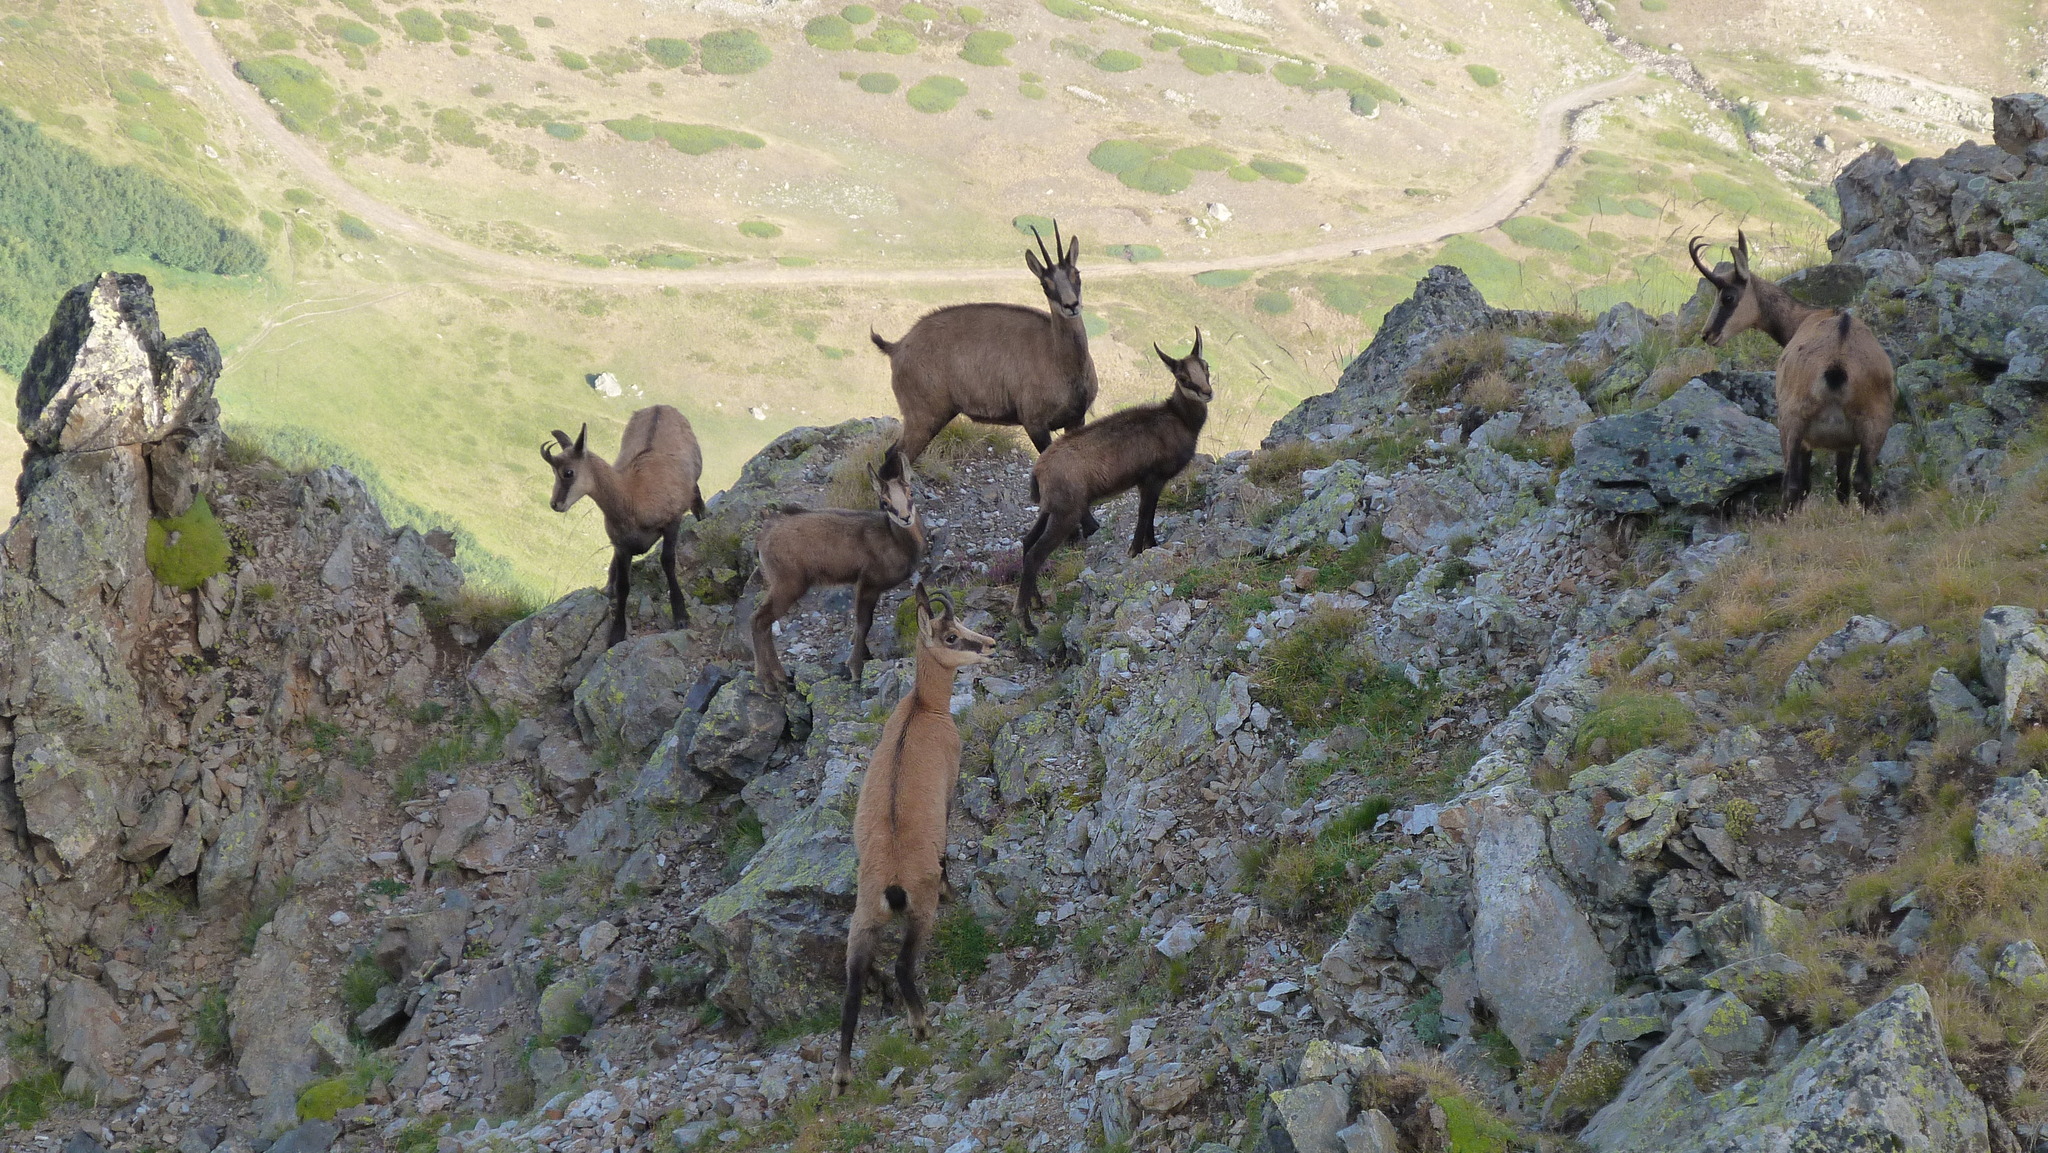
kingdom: Animalia
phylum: Chordata
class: Mammalia
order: Artiodactyla
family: Bovidae
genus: Rupicapra
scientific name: Rupicapra rupicapra
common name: Chamois
